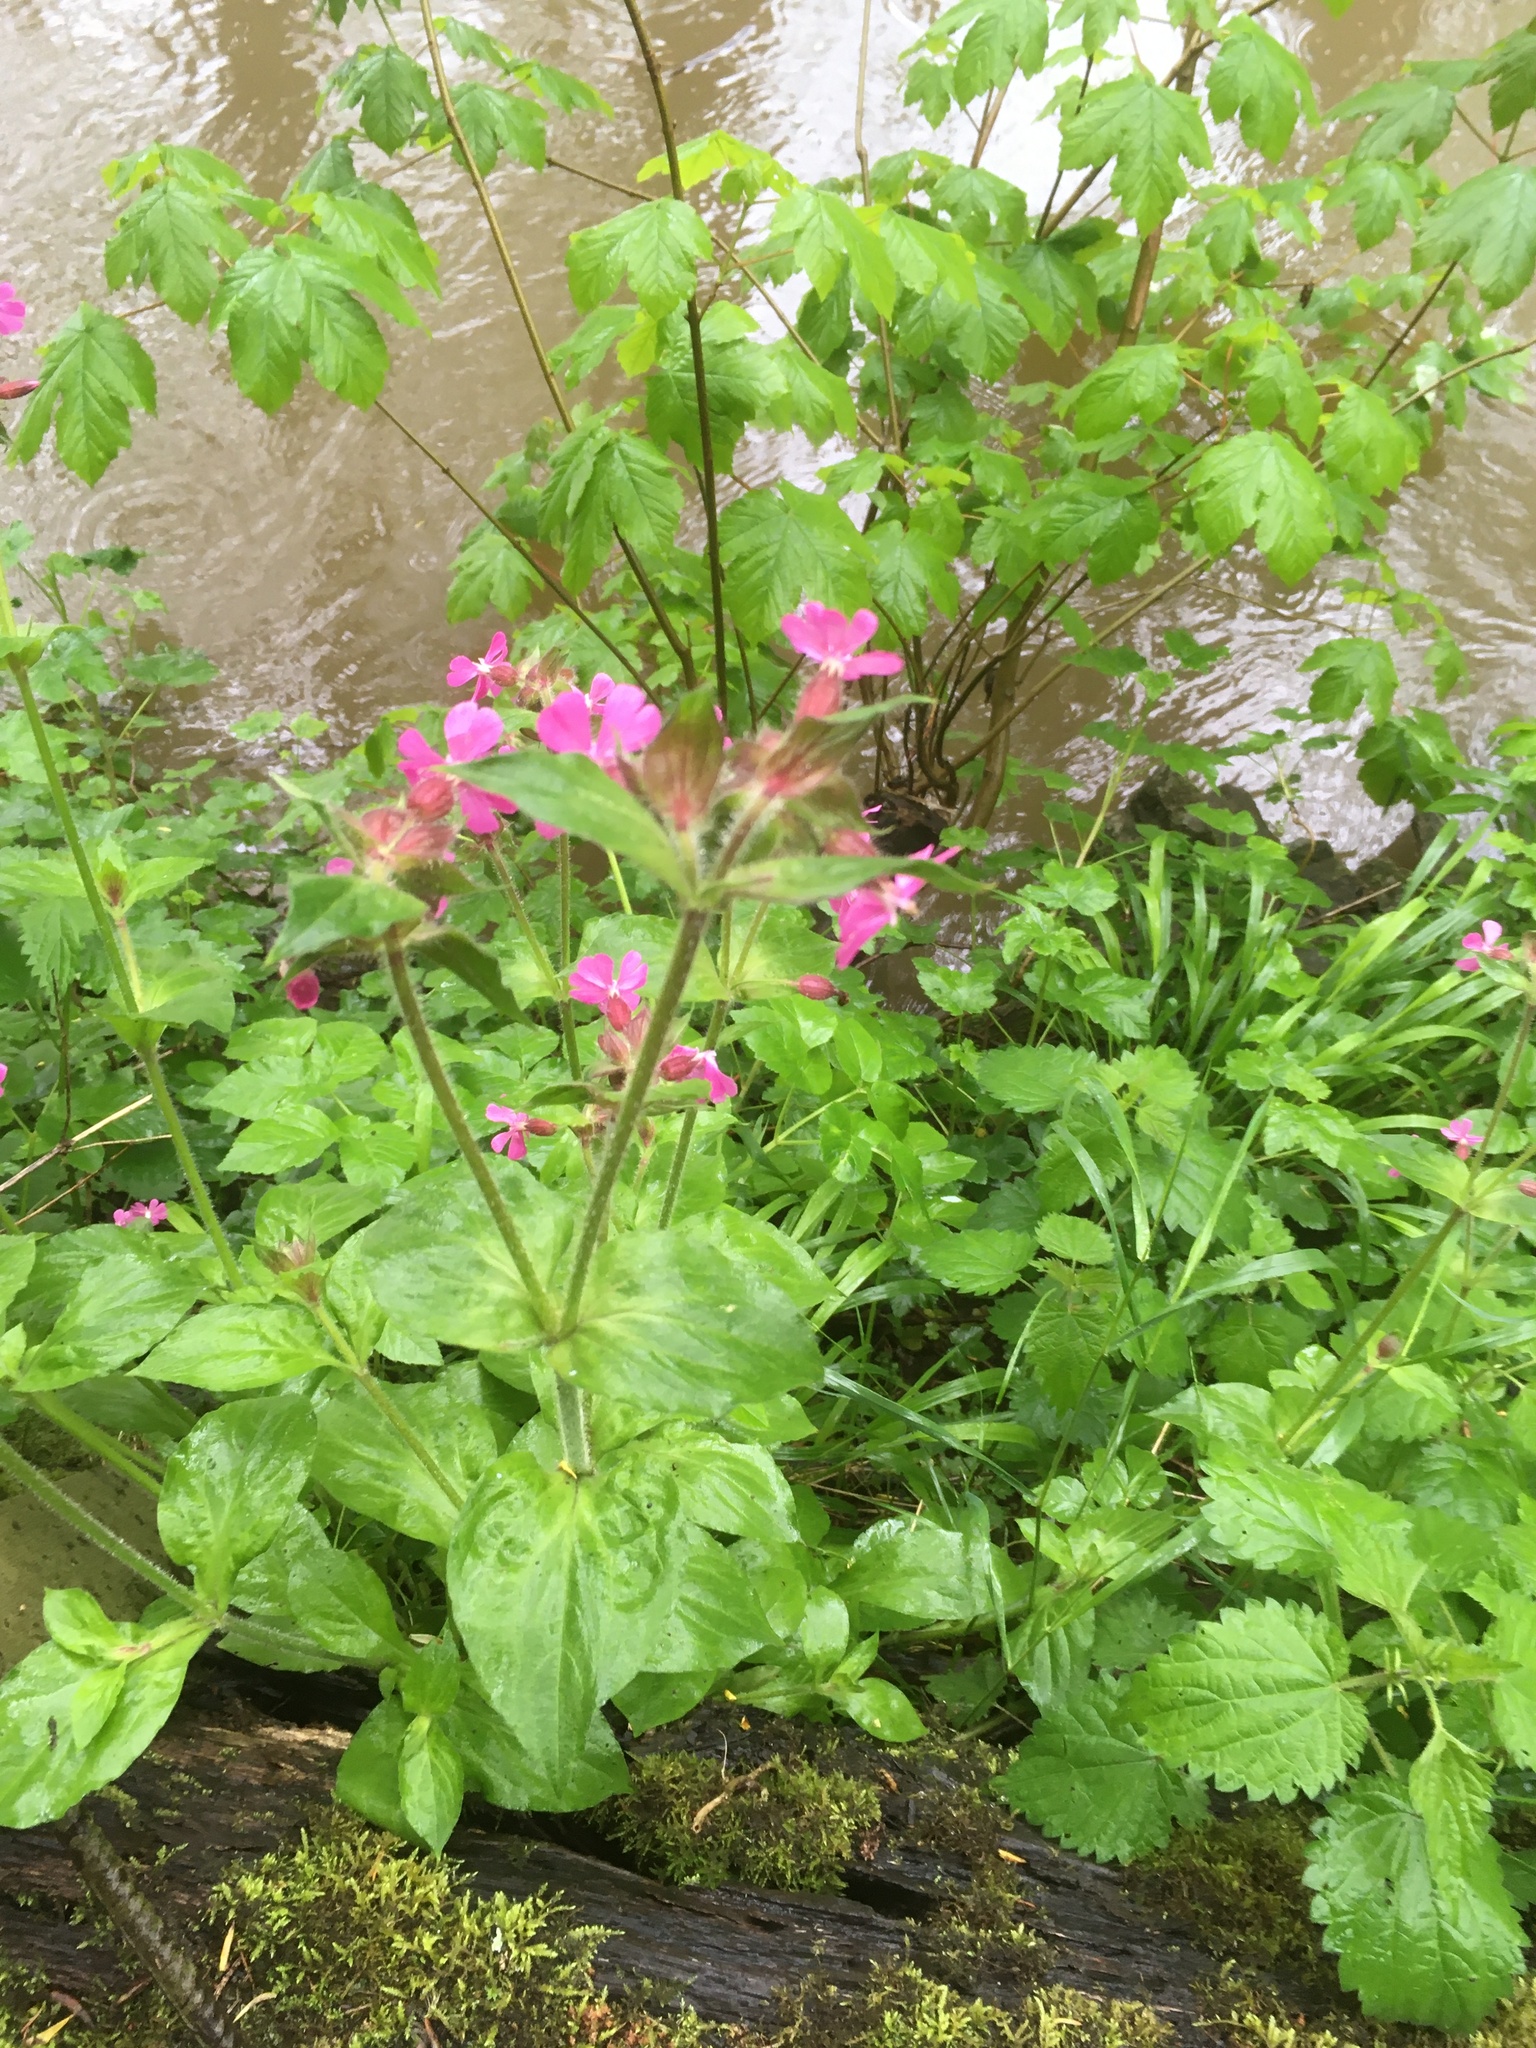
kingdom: Plantae
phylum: Tracheophyta
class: Magnoliopsida
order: Caryophyllales
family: Caryophyllaceae
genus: Silene
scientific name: Silene dioica
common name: Red campion
